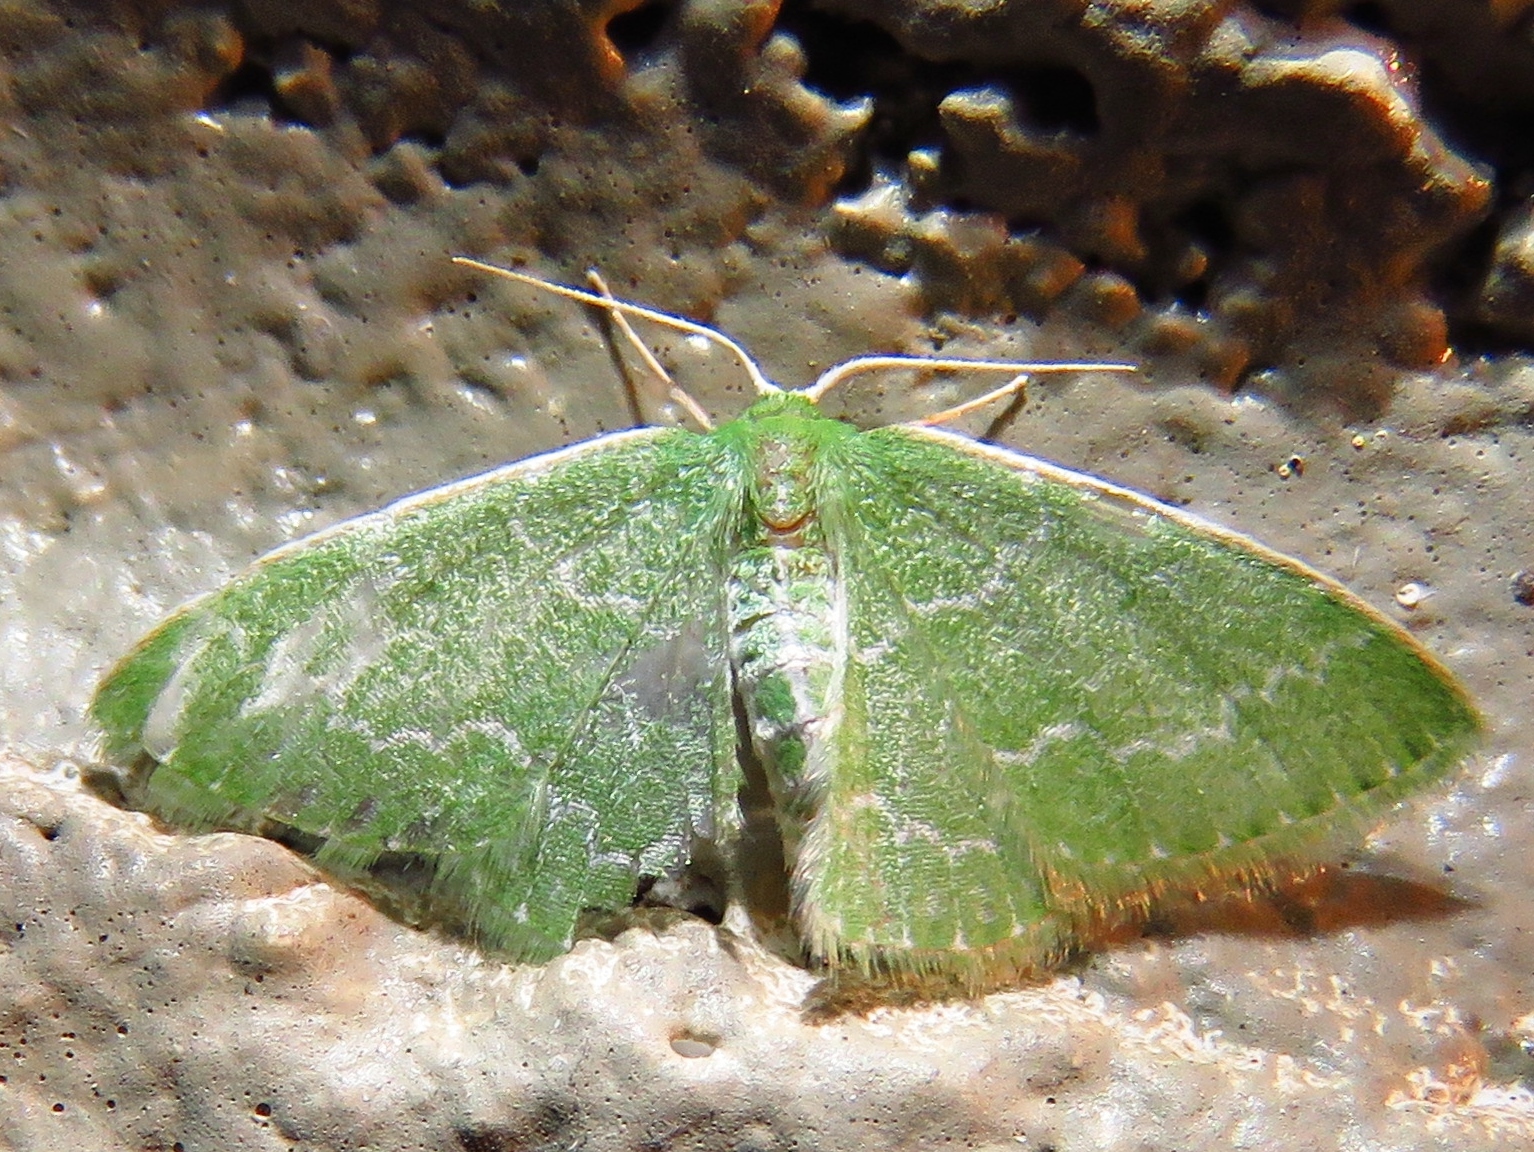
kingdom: Animalia
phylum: Arthropoda
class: Insecta
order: Lepidoptera
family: Geometridae
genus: Synchlora
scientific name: Synchlora frondaria
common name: Southern emerald
